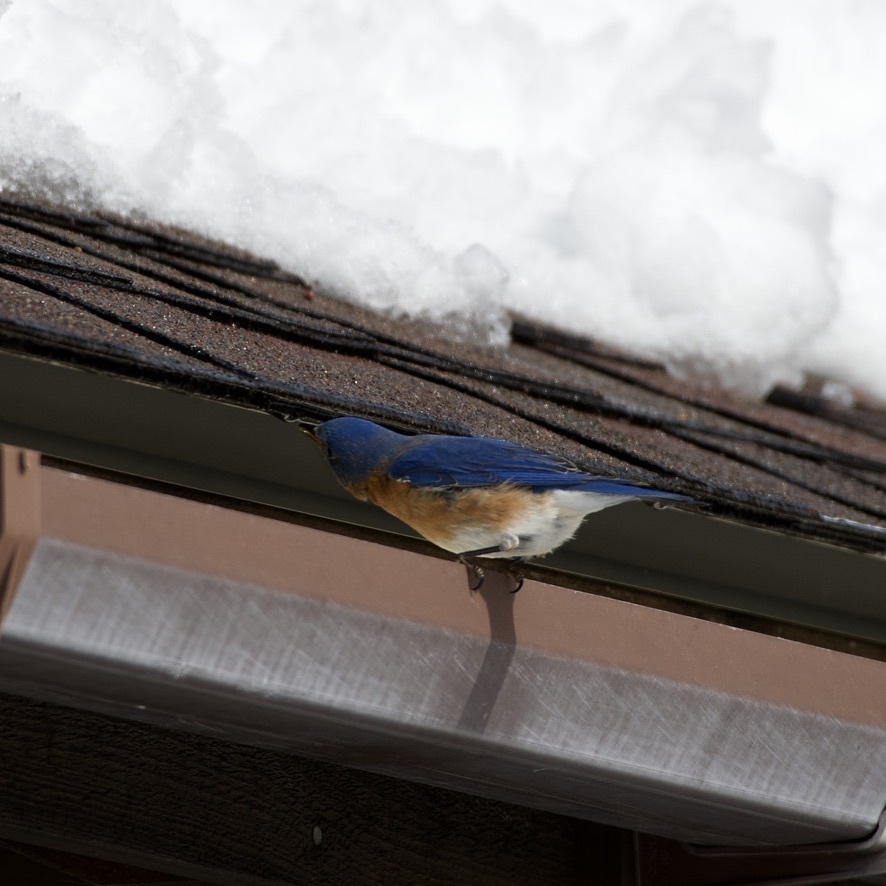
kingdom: Animalia
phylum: Chordata
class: Aves
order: Passeriformes
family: Turdidae
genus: Sialia
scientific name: Sialia sialis
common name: Eastern bluebird
